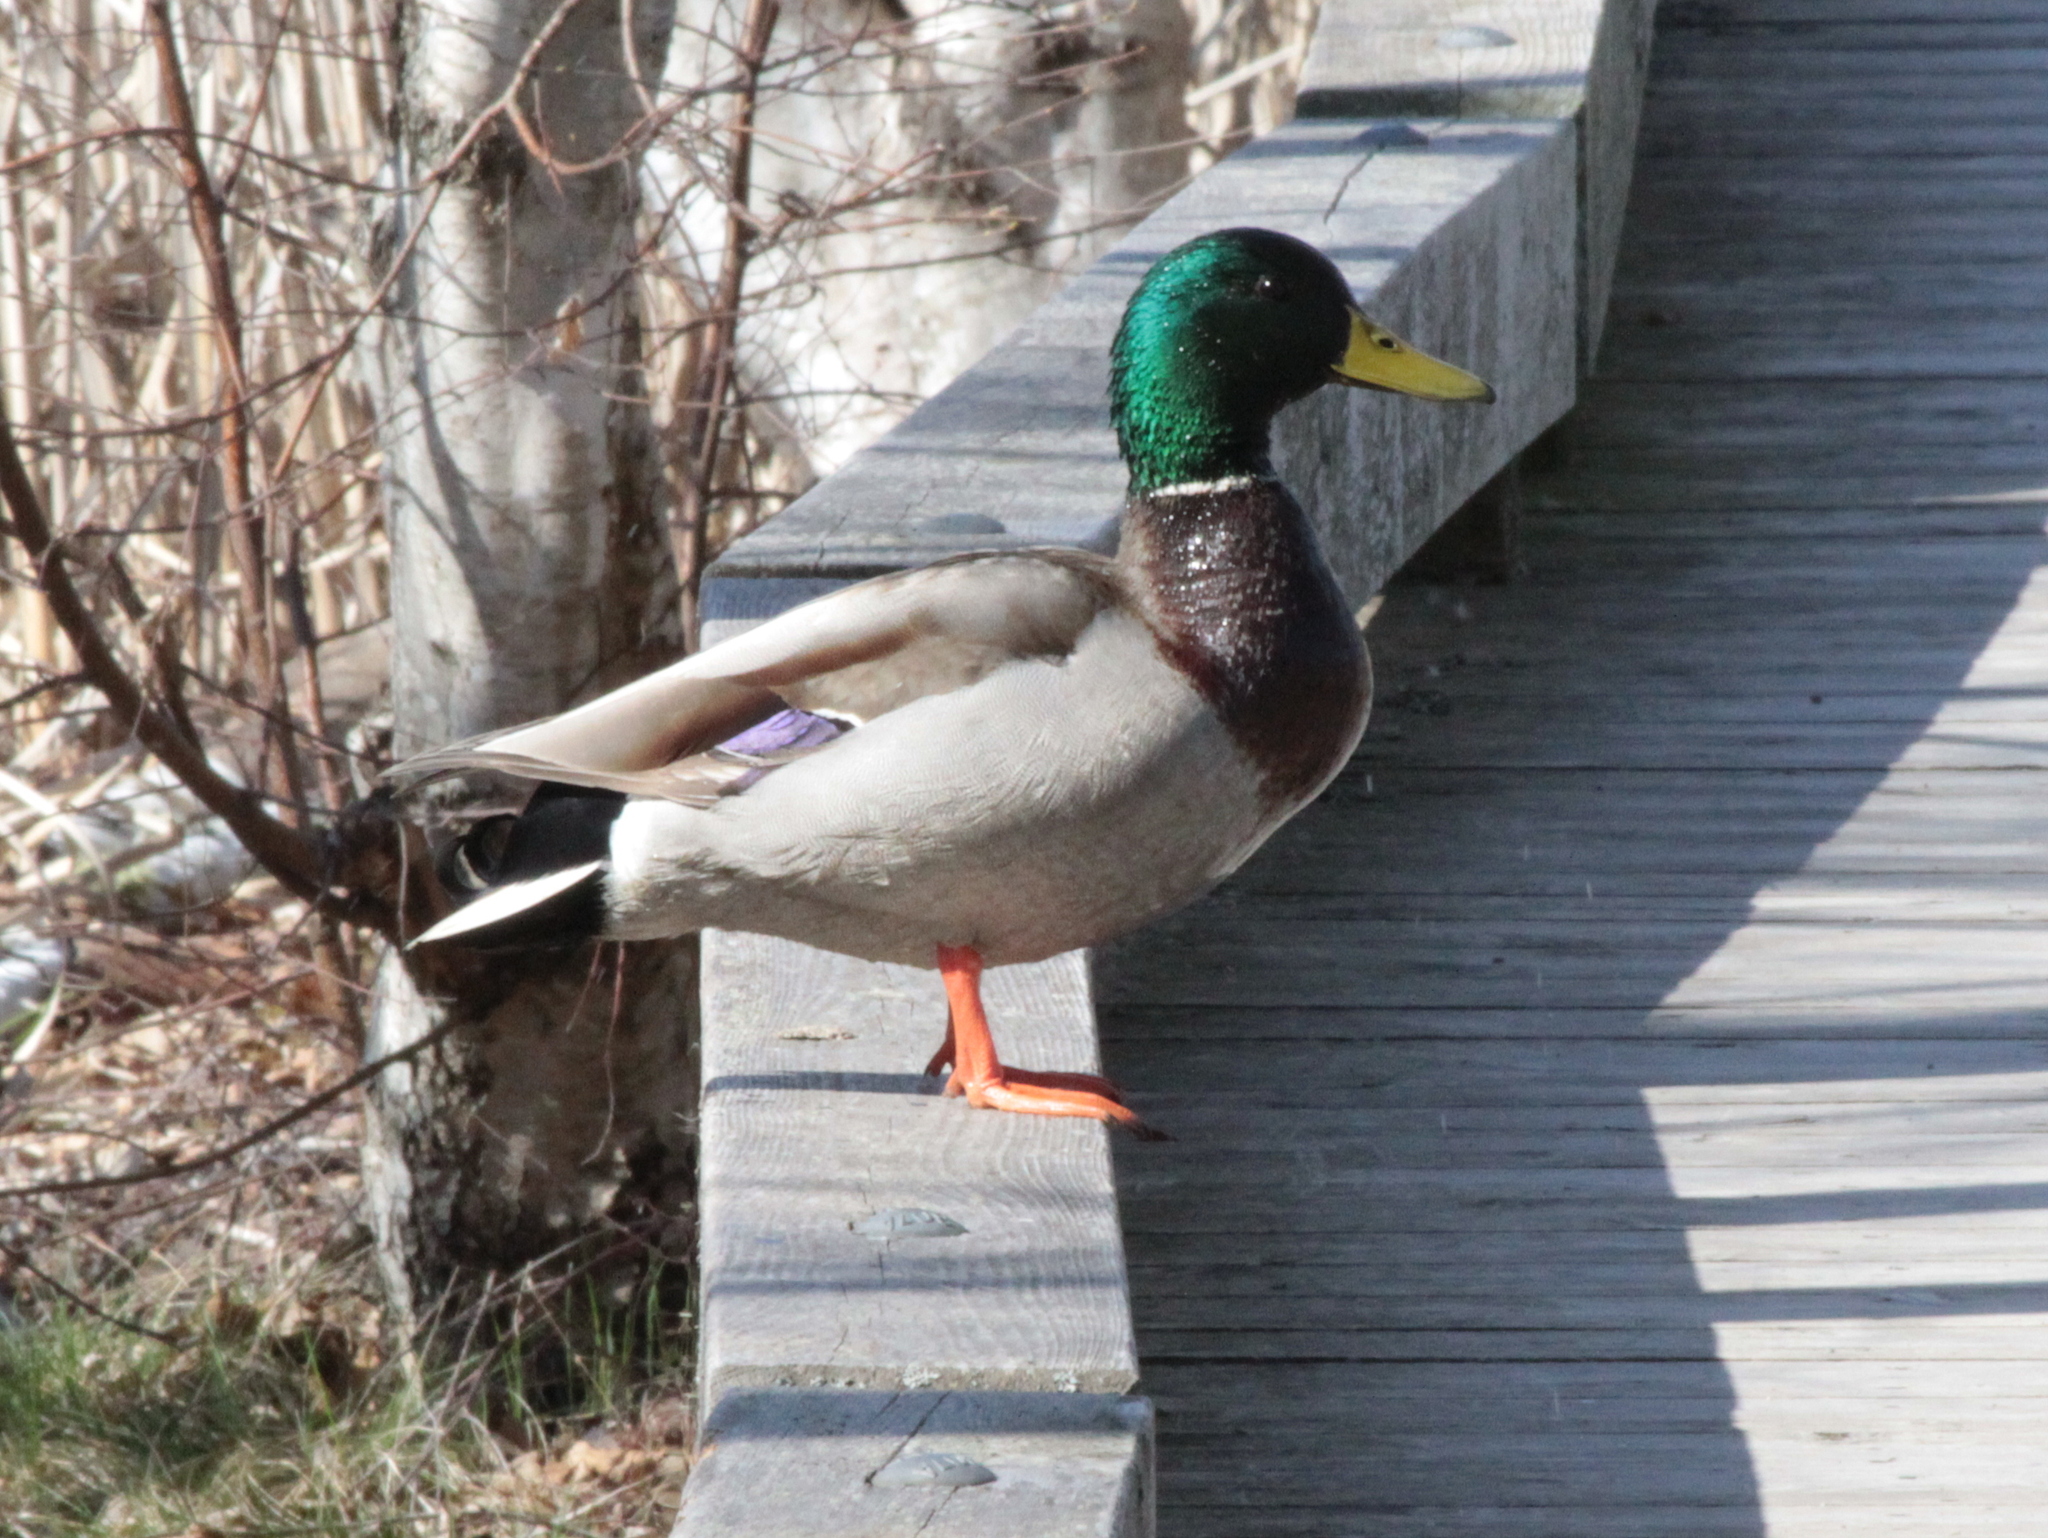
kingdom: Animalia
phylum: Chordata
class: Aves
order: Anseriformes
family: Anatidae
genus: Anas
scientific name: Anas platyrhynchos
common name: Mallard
